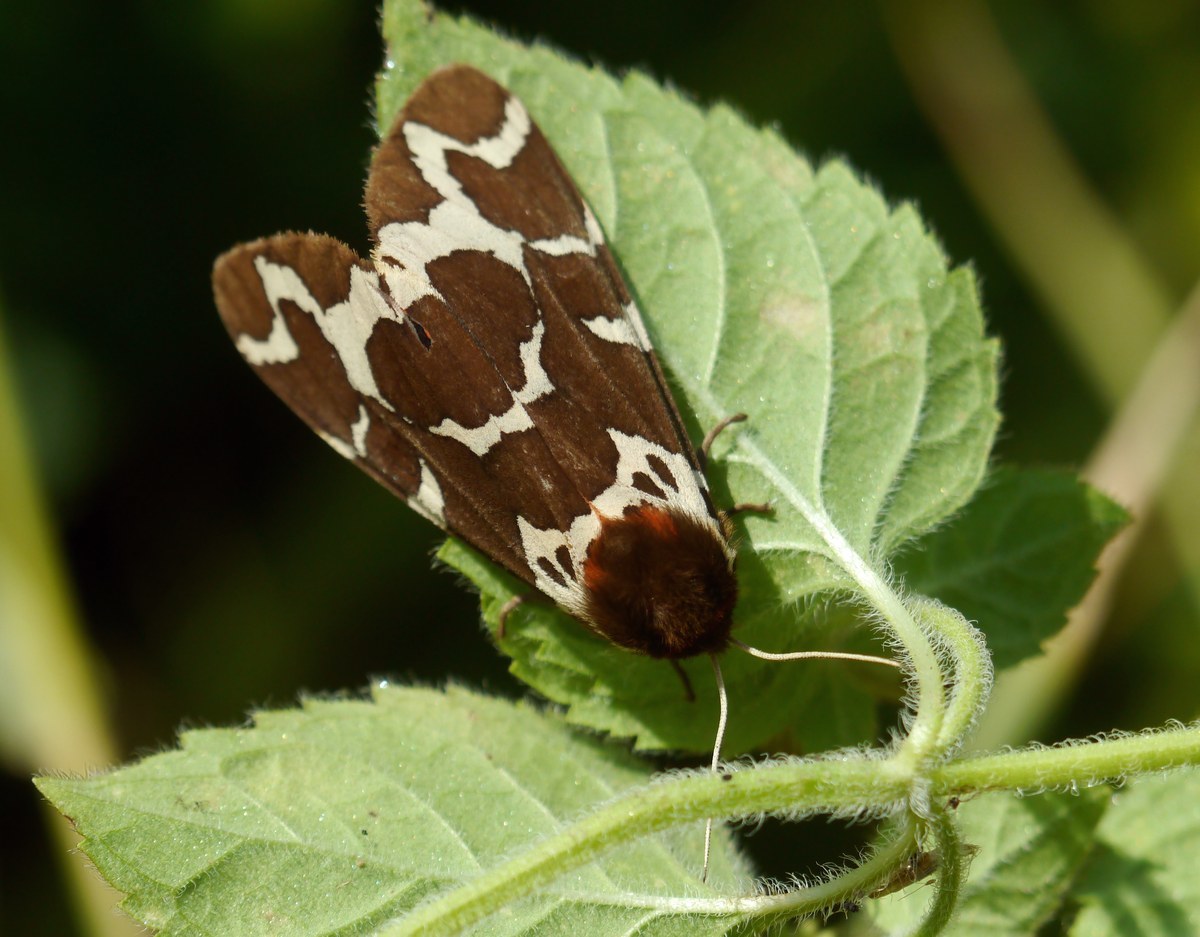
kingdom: Animalia
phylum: Arthropoda
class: Insecta
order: Lepidoptera
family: Erebidae
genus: Arctia
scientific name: Arctia caja
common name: Garden tiger
